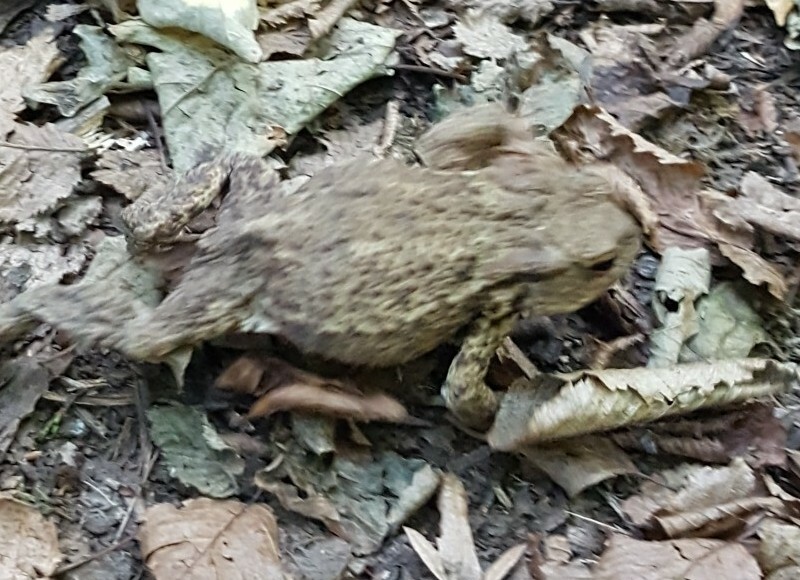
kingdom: Animalia
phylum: Chordata
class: Amphibia
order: Anura
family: Bufonidae
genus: Bufo
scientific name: Bufo bufo
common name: Common toad
